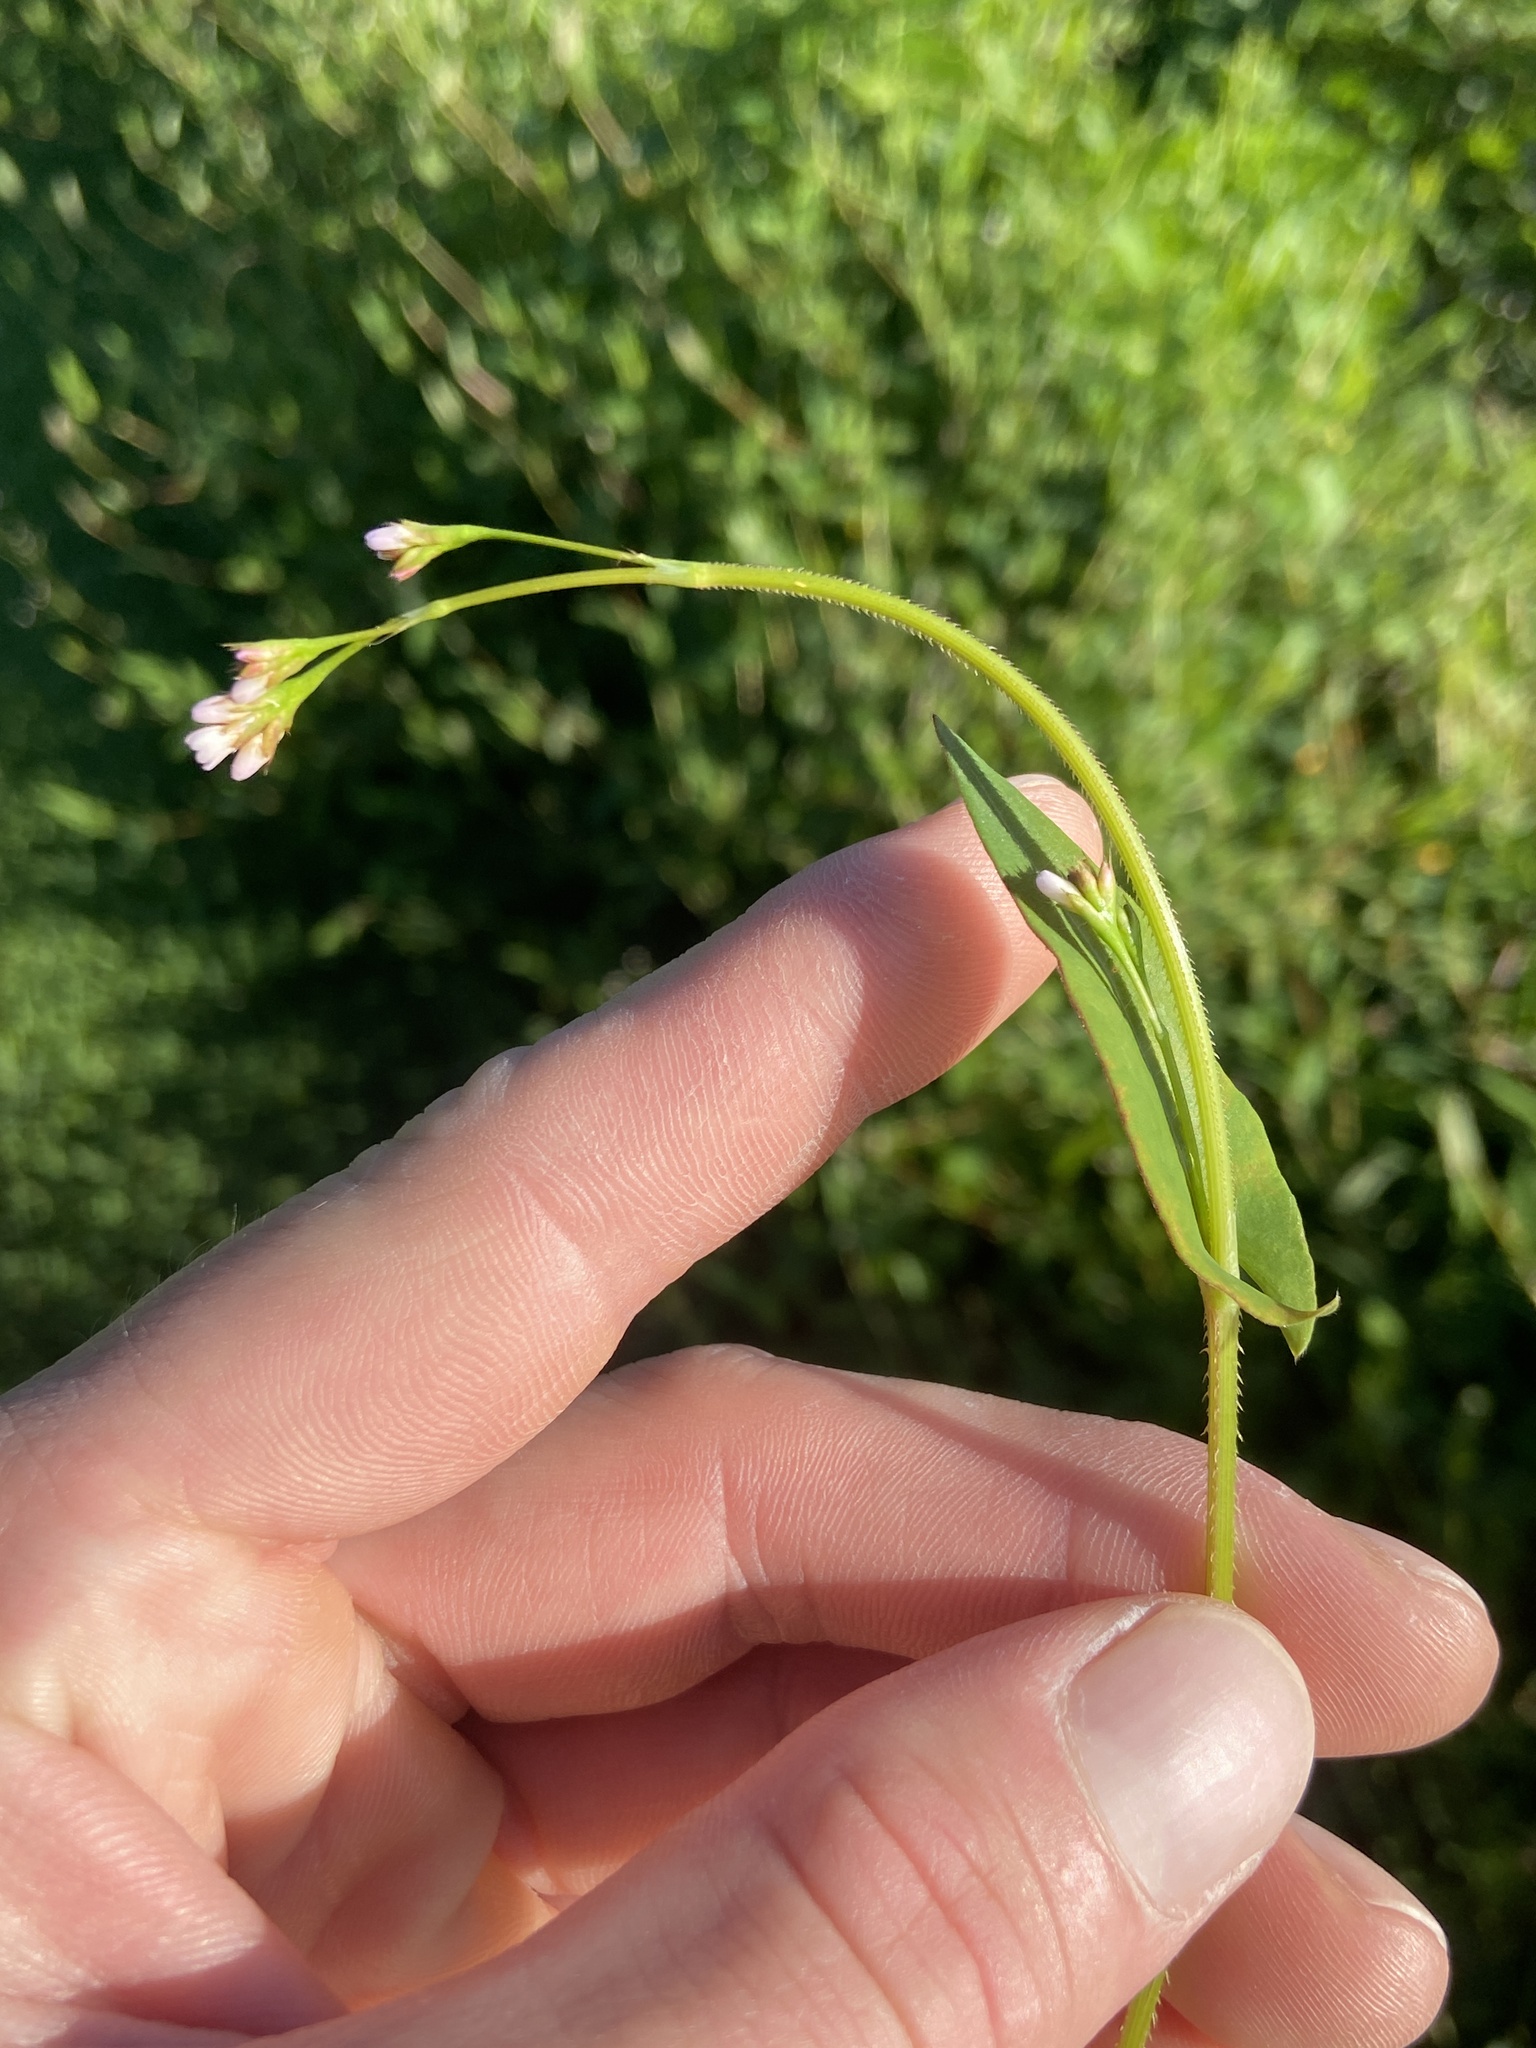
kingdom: Plantae
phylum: Tracheophyta
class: Magnoliopsida
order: Caryophyllales
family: Polygonaceae
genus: Persicaria
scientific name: Persicaria sagittata
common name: American tearthumb
